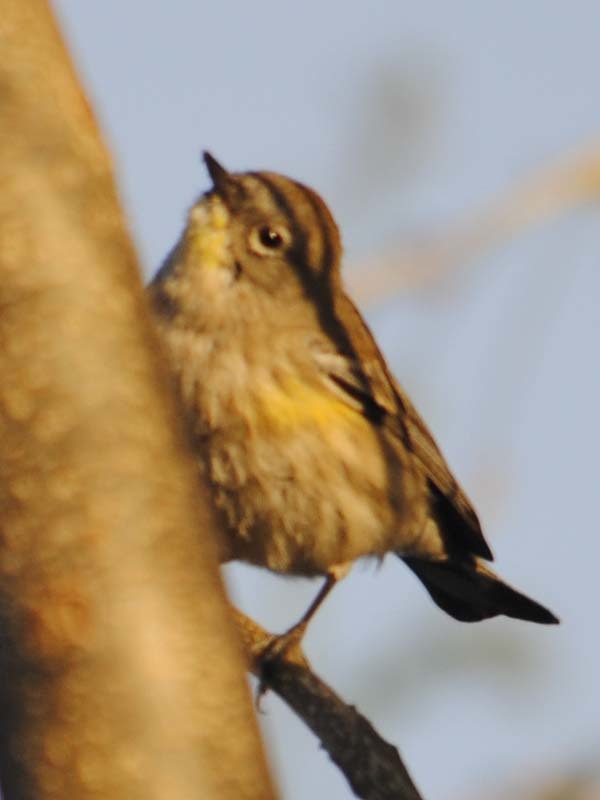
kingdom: Animalia
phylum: Chordata
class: Aves
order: Passeriformes
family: Parulidae
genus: Setophaga
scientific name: Setophaga coronata
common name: Myrtle warbler
